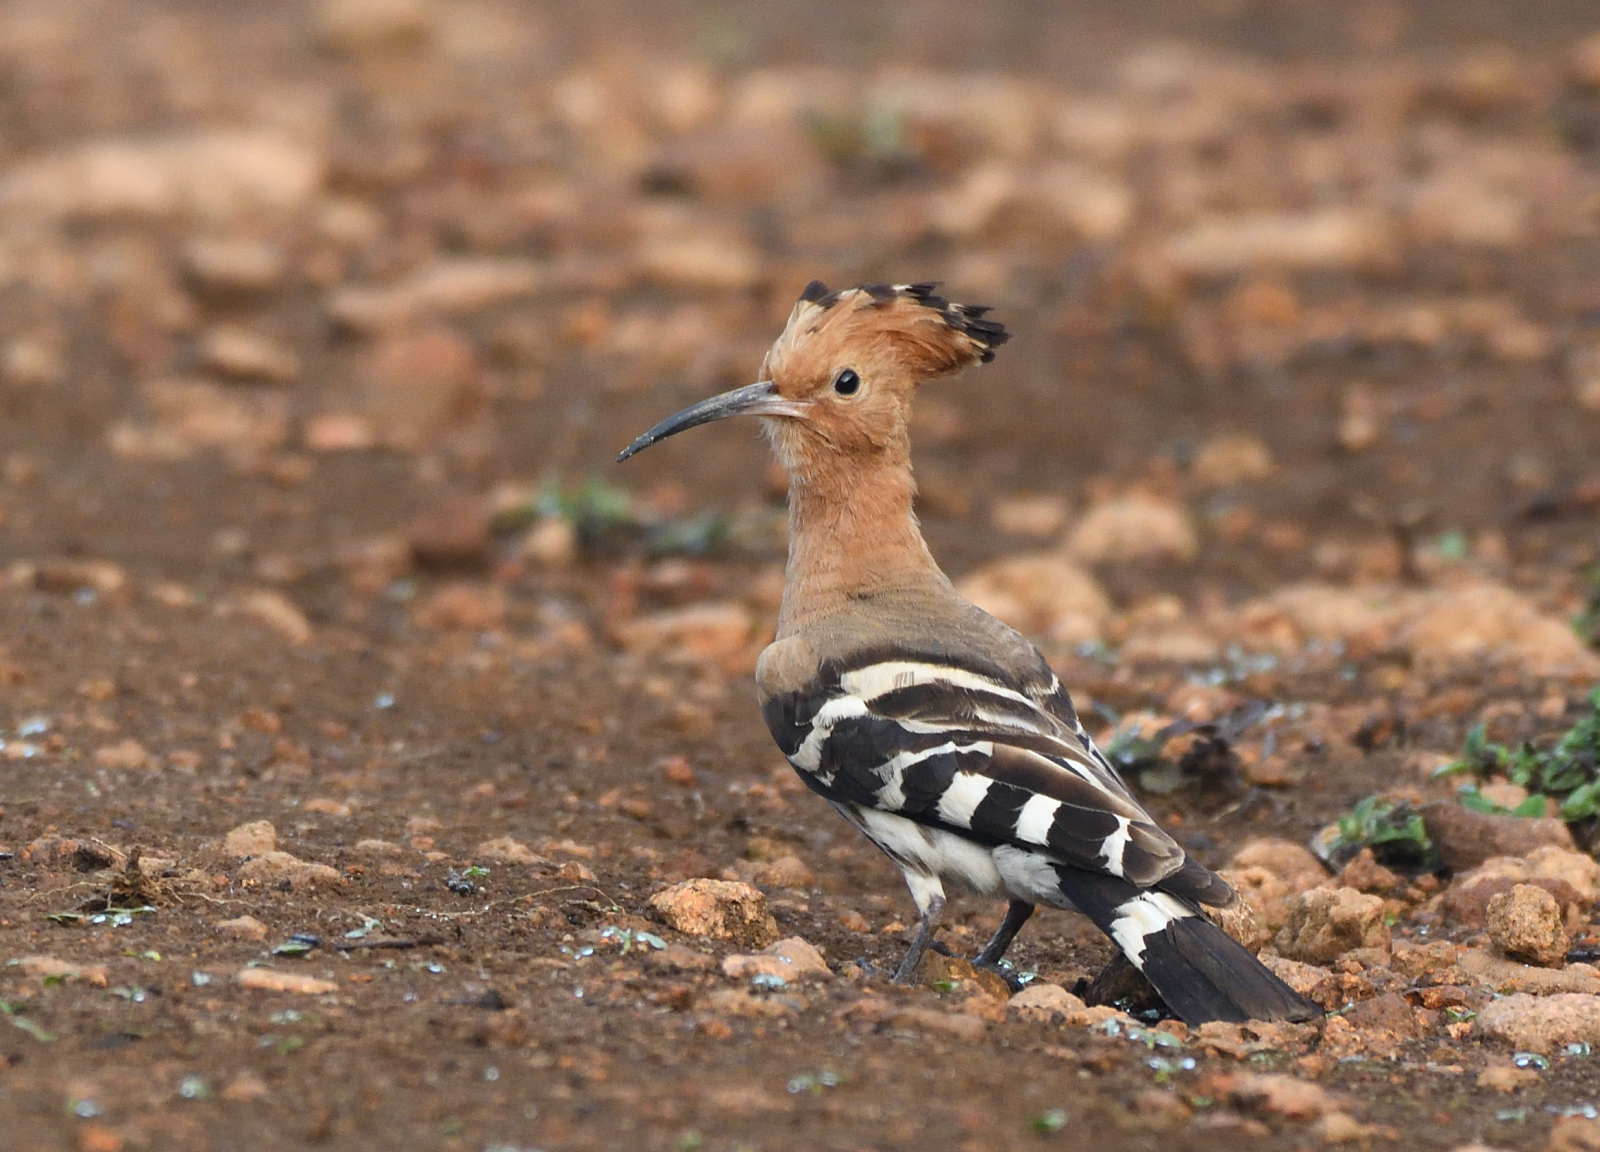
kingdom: Animalia
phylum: Chordata
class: Aves
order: Bucerotiformes
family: Upupidae
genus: Upupa
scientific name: Upupa epops
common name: Eurasian hoopoe
